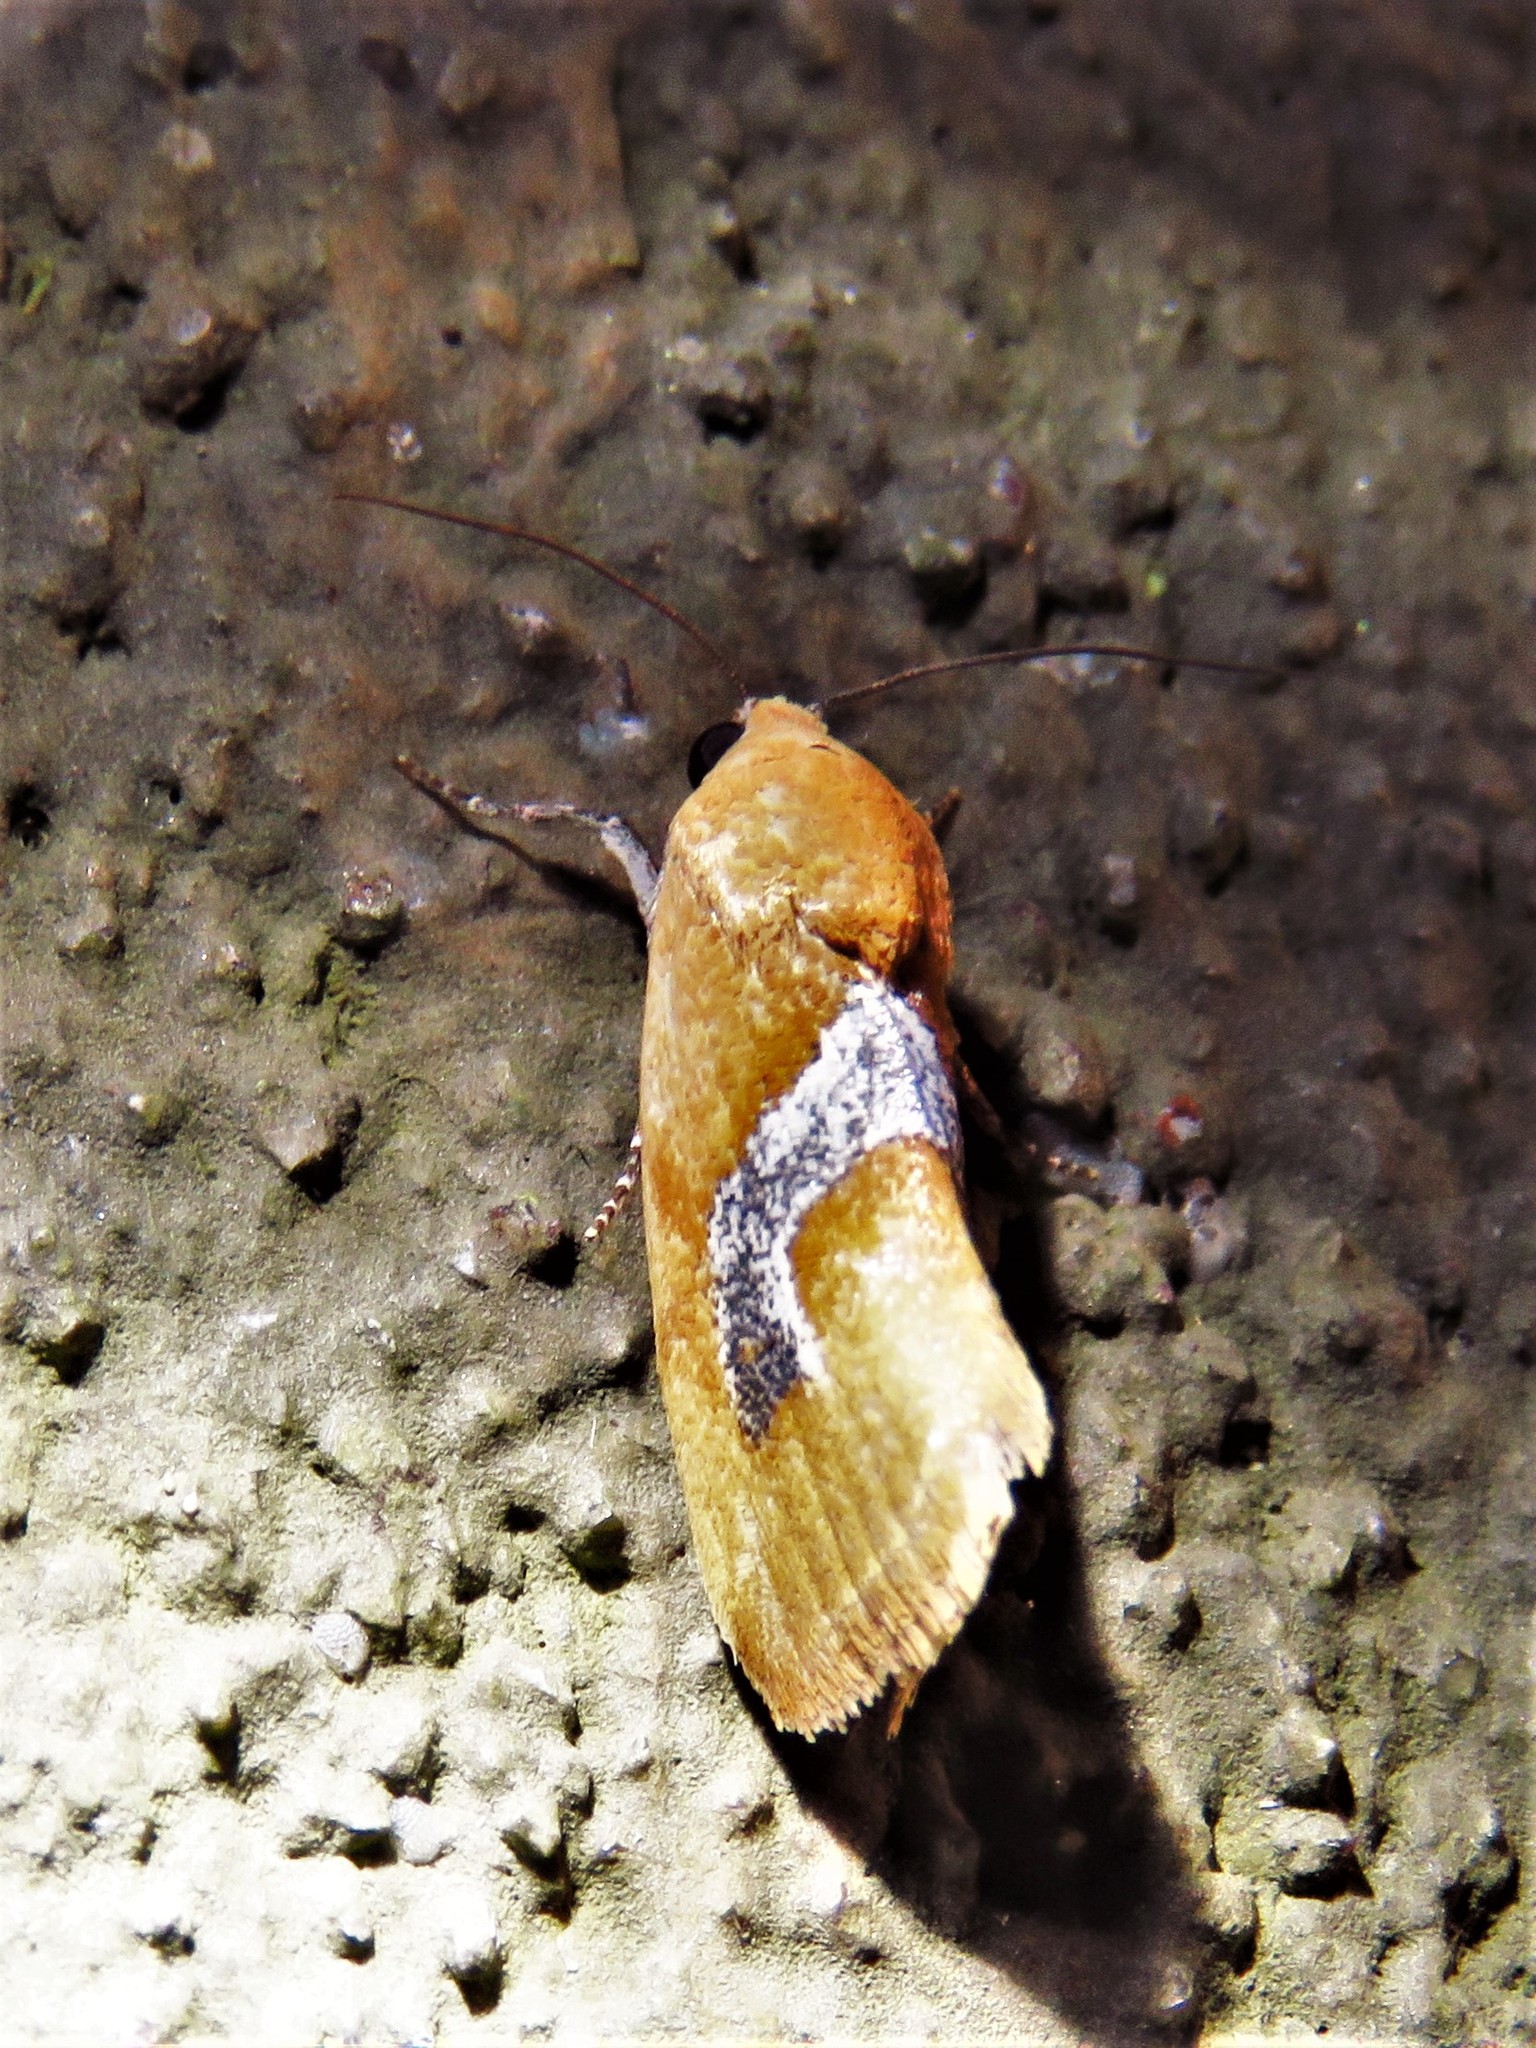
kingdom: Animalia
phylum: Arthropoda
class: Insecta
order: Lepidoptera
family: Noctuidae
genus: Ponometia
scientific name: Ponometia venustula
